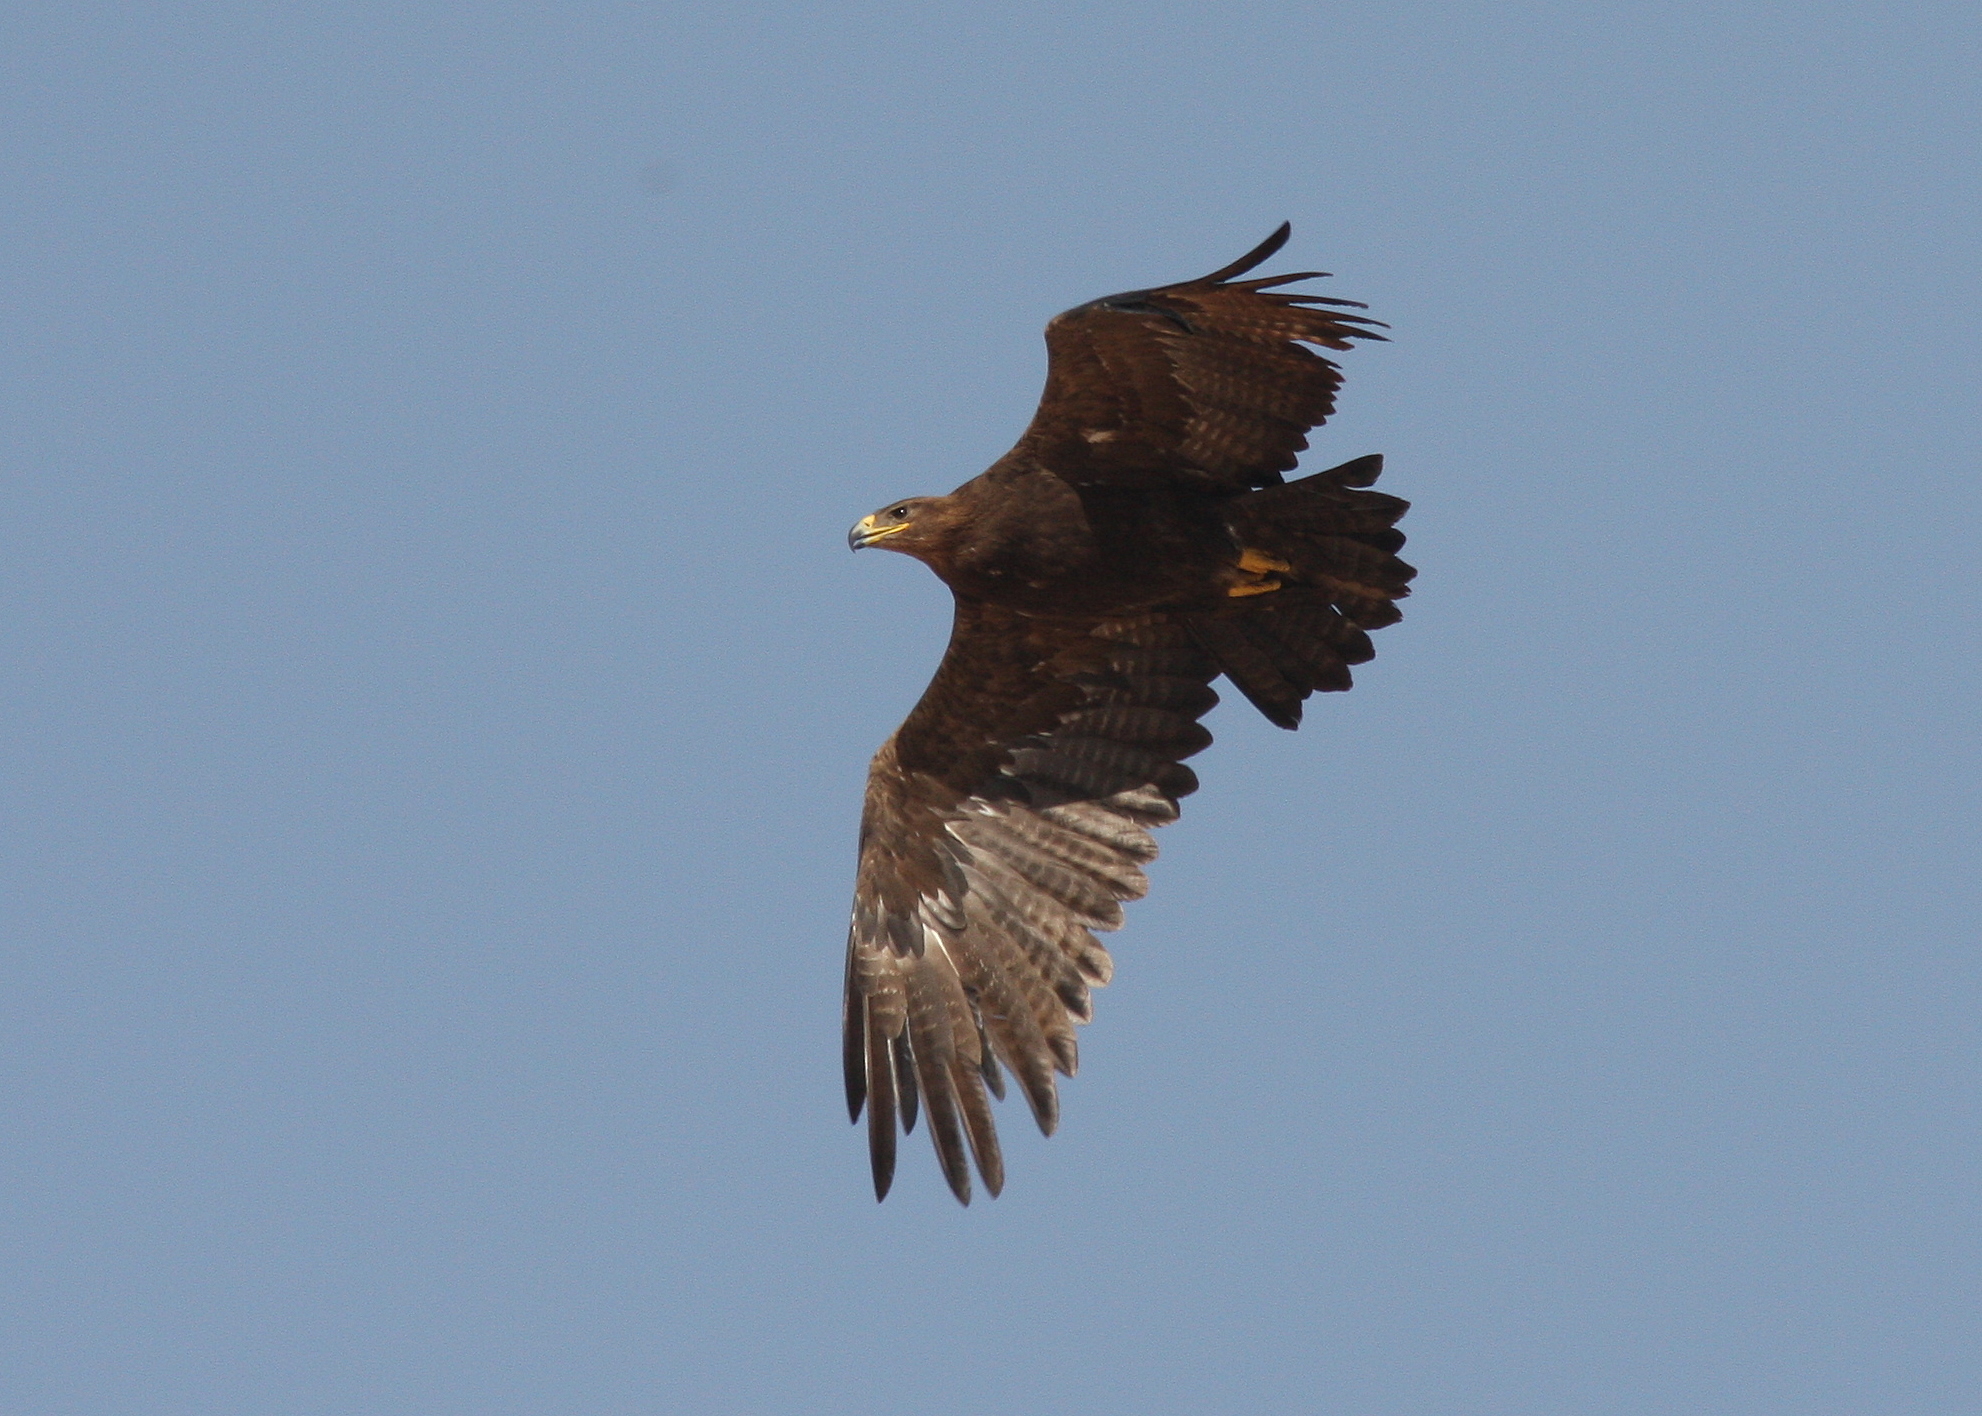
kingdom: Animalia
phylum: Chordata
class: Aves
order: Accipitriformes
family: Accipitridae
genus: Aquila
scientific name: Aquila nipalensis
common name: Steppe eagle
